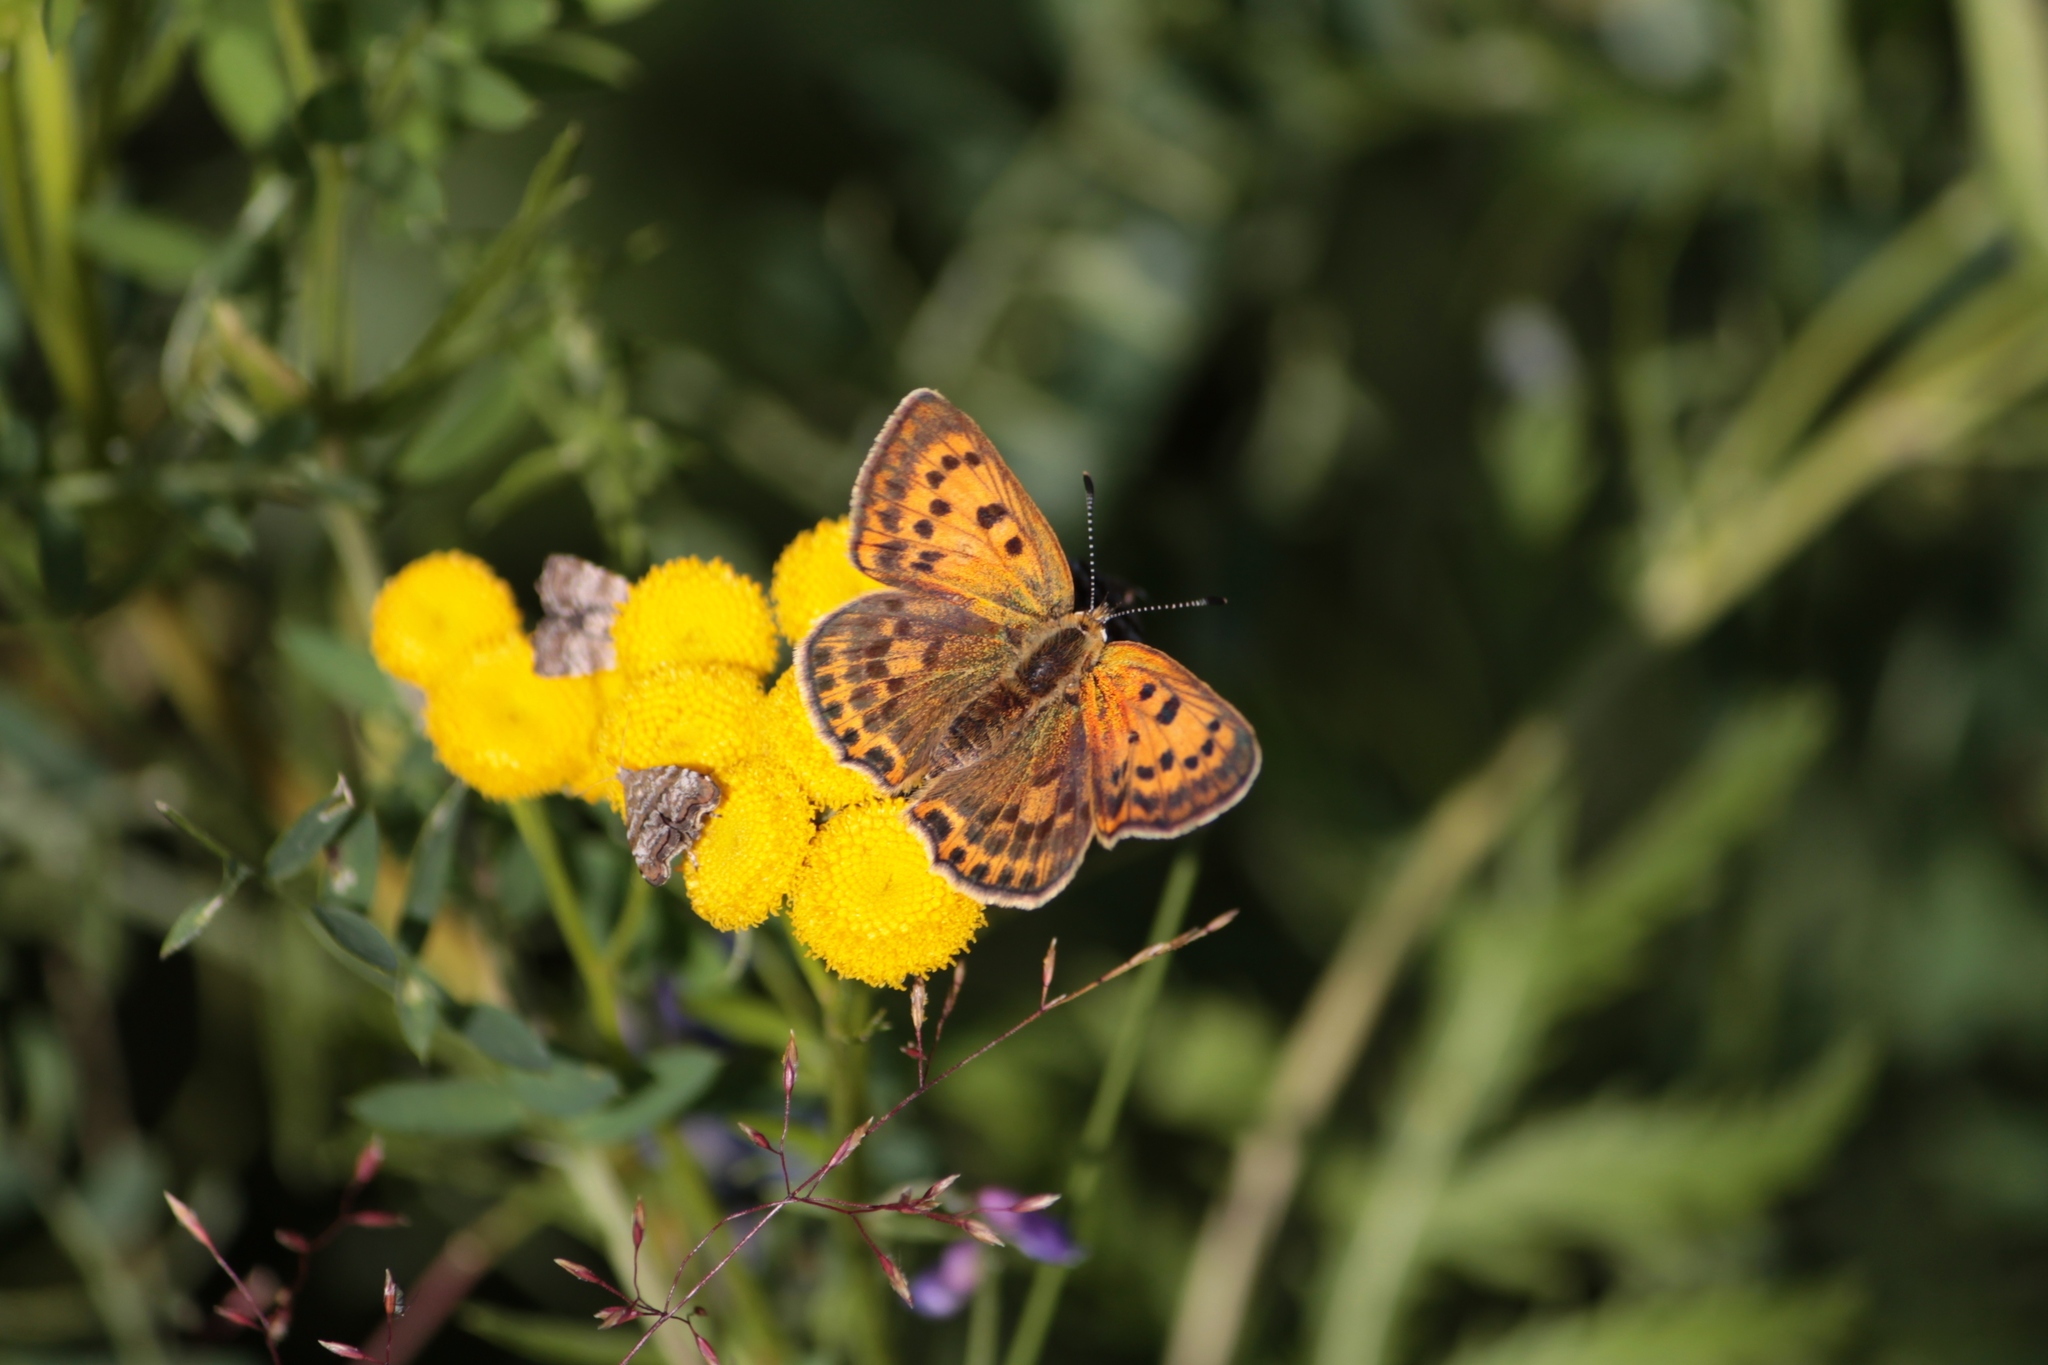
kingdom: Animalia
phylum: Arthropoda
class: Insecta
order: Lepidoptera
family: Lycaenidae
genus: Lycaena
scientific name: Lycaena virgaureae
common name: Scarce copper
